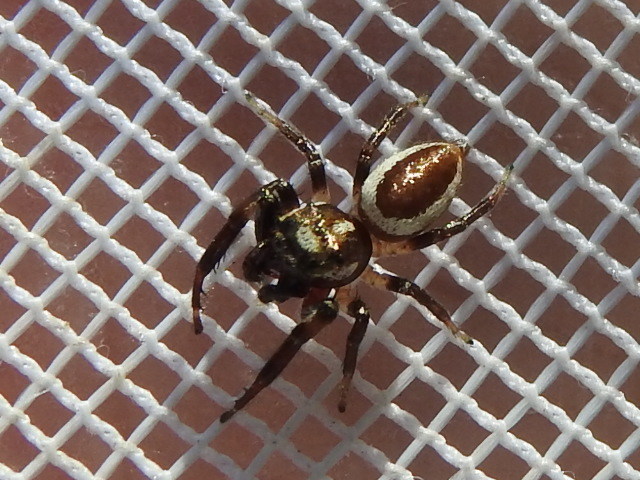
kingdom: Animalia
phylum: Arthropoda
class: Arachnida
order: Araneae
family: Salticidae
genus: Eris
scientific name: Eris militaris
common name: Bronze jumper
